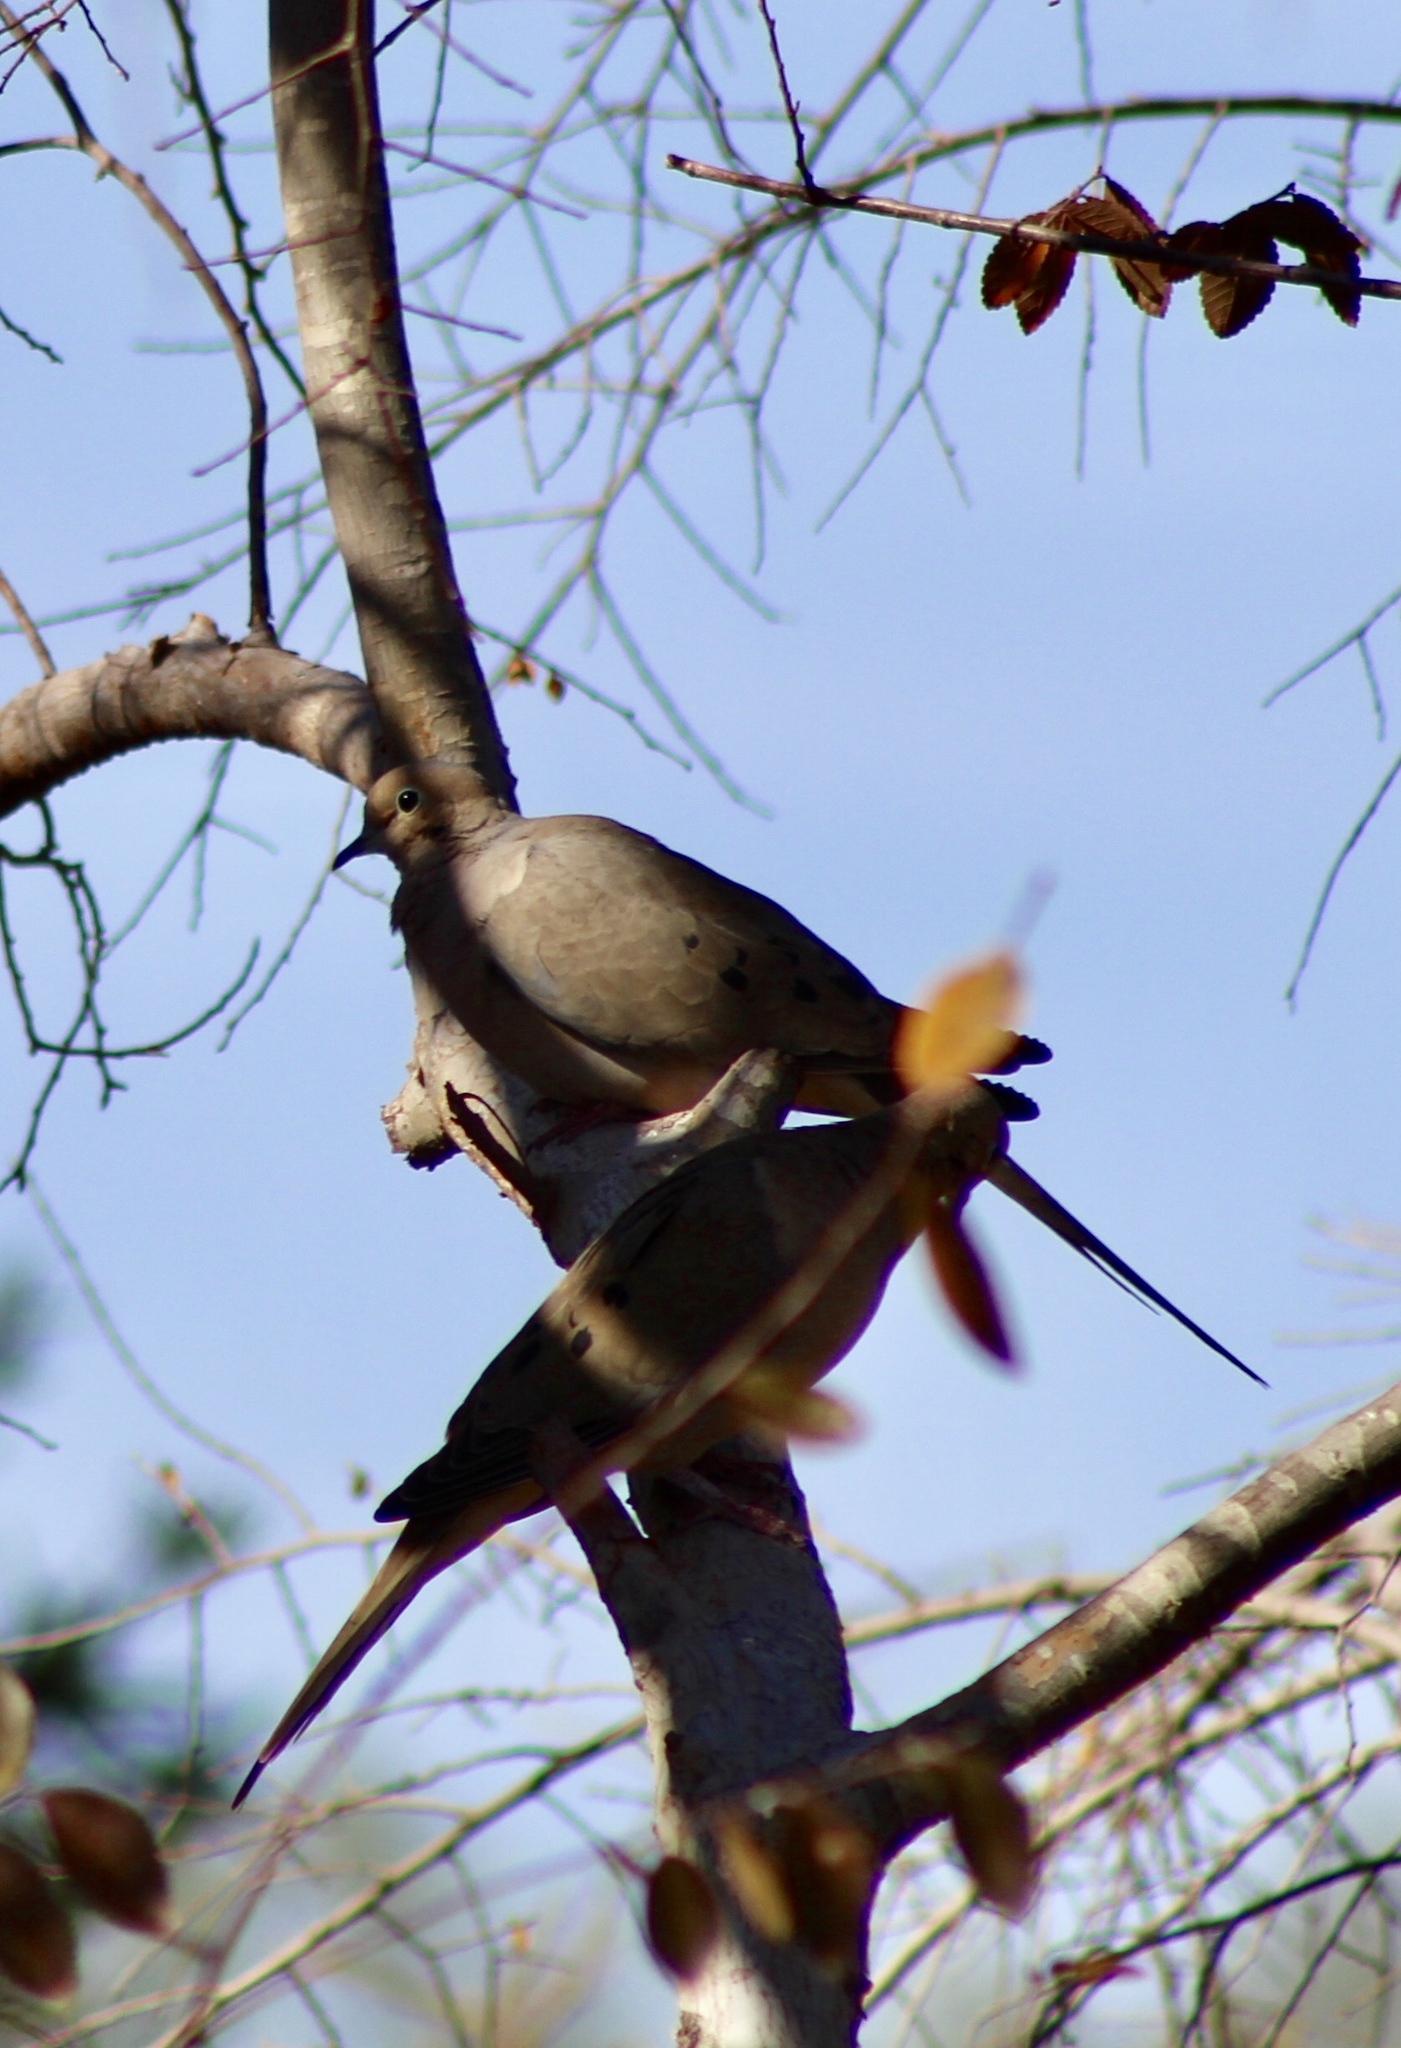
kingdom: Animalia
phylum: Chordata
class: Aves
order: Columbiformes
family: Columbidae
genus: Zenaida
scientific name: Zenaida macroura
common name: Mourning dove
